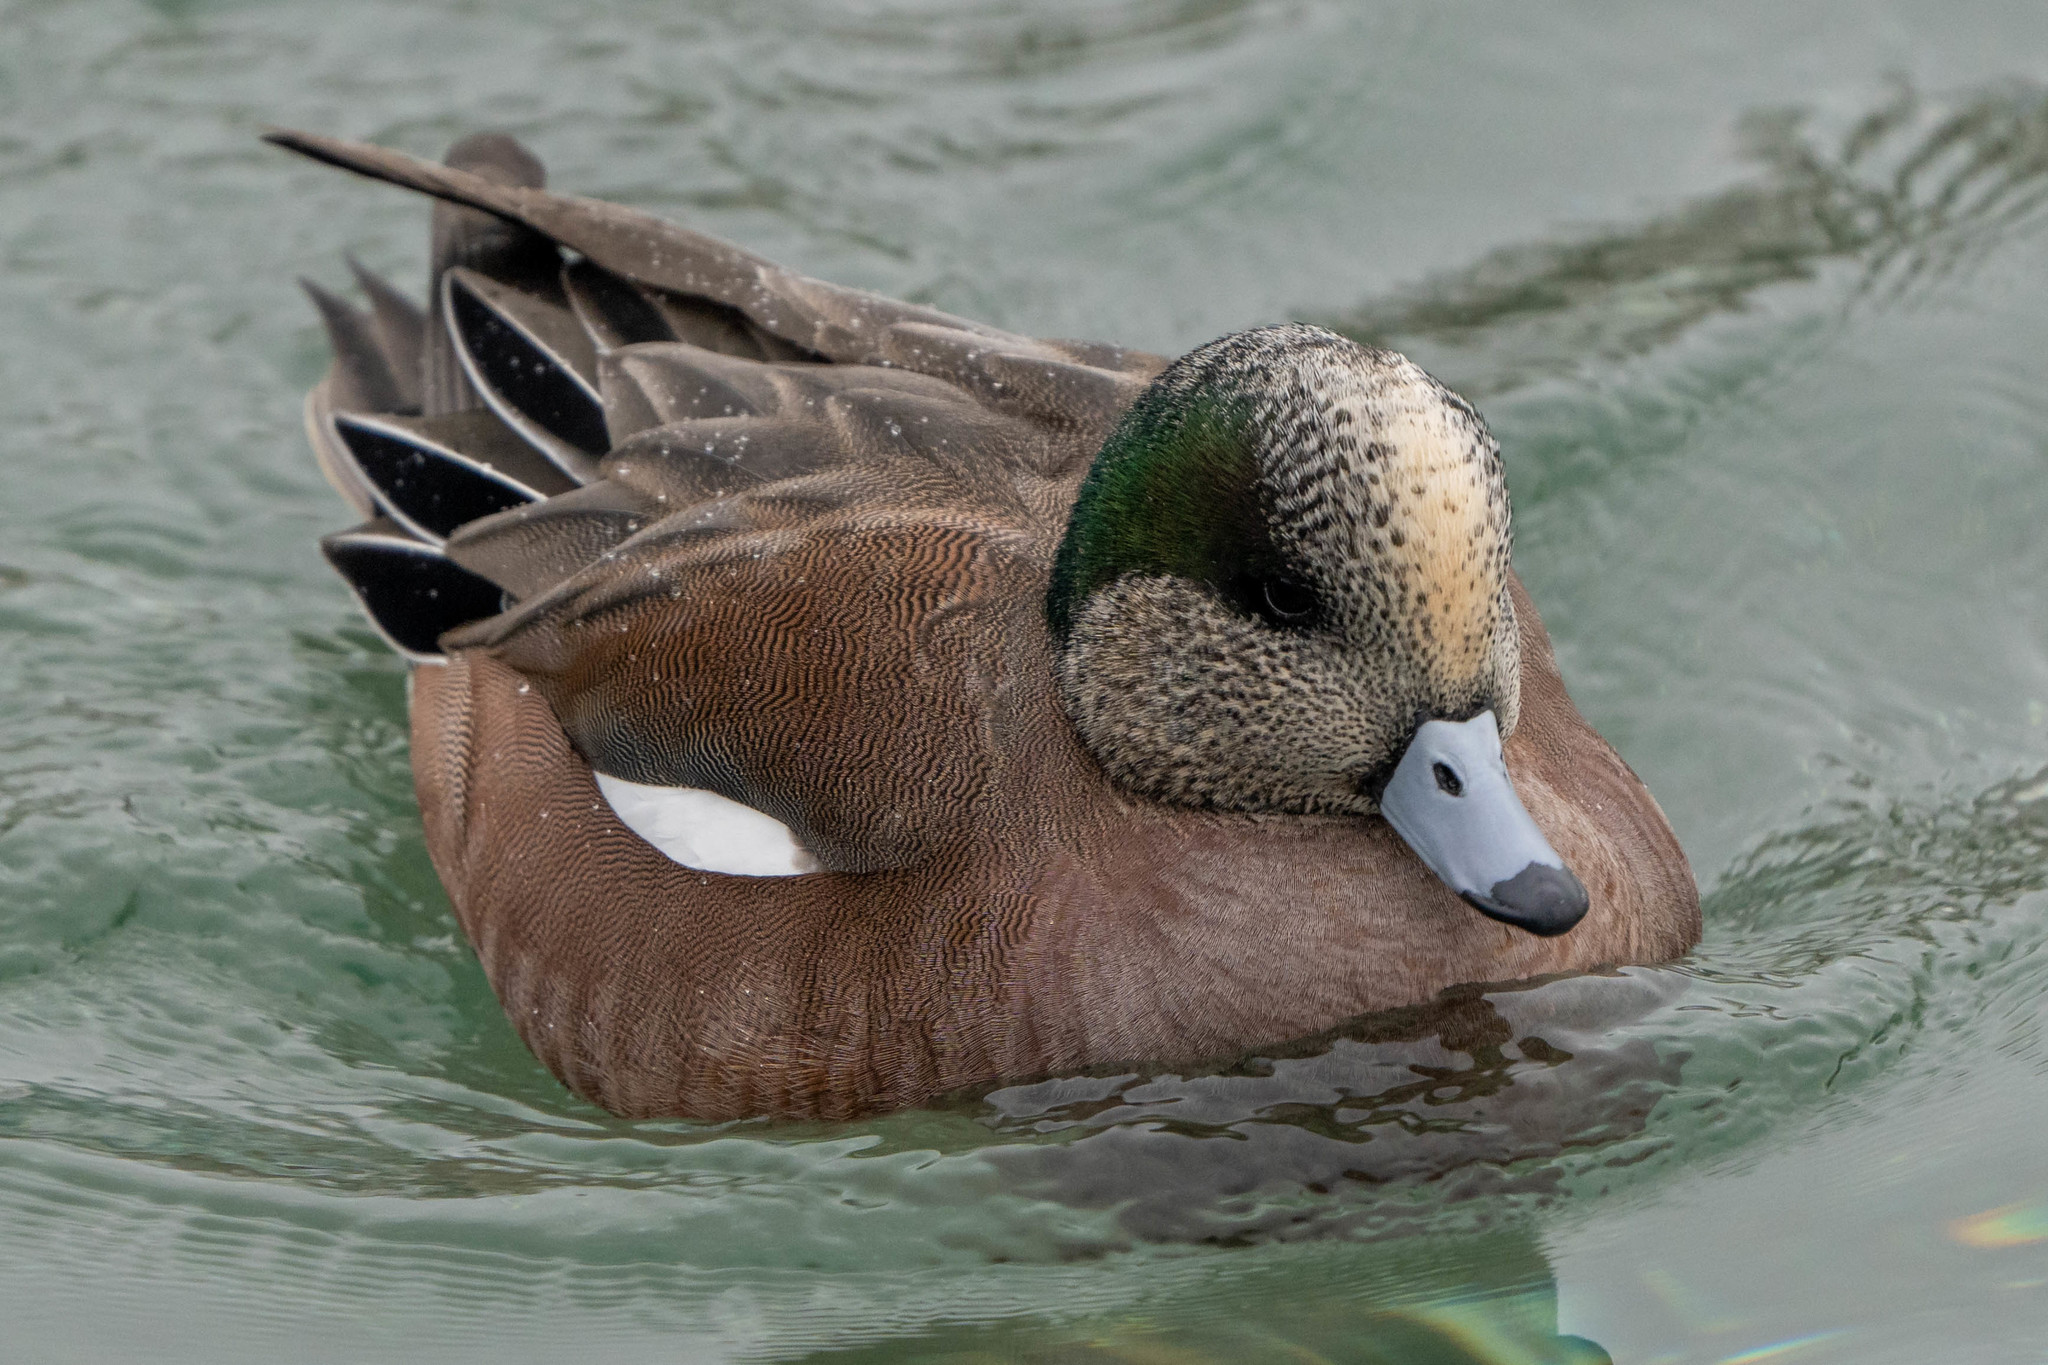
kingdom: Animalia
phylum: Chordata
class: Aves
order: Anseriformes
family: Anatidae
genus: Mareca
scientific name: Mareca americana
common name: American wigeon
